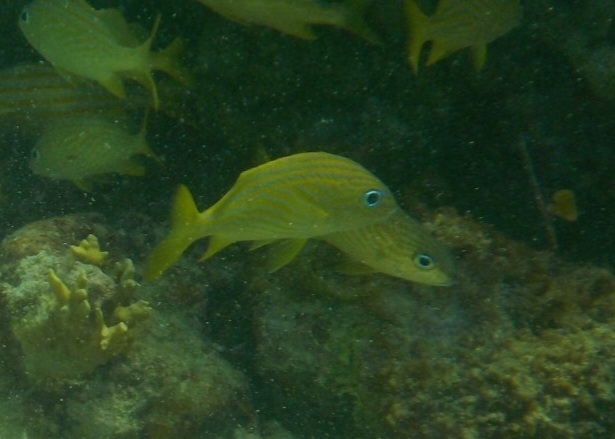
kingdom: Animalia
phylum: Chordata
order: Perciformes
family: Haemulidae
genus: Haemulon
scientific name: Haemulon flavolineatum
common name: French grunt
